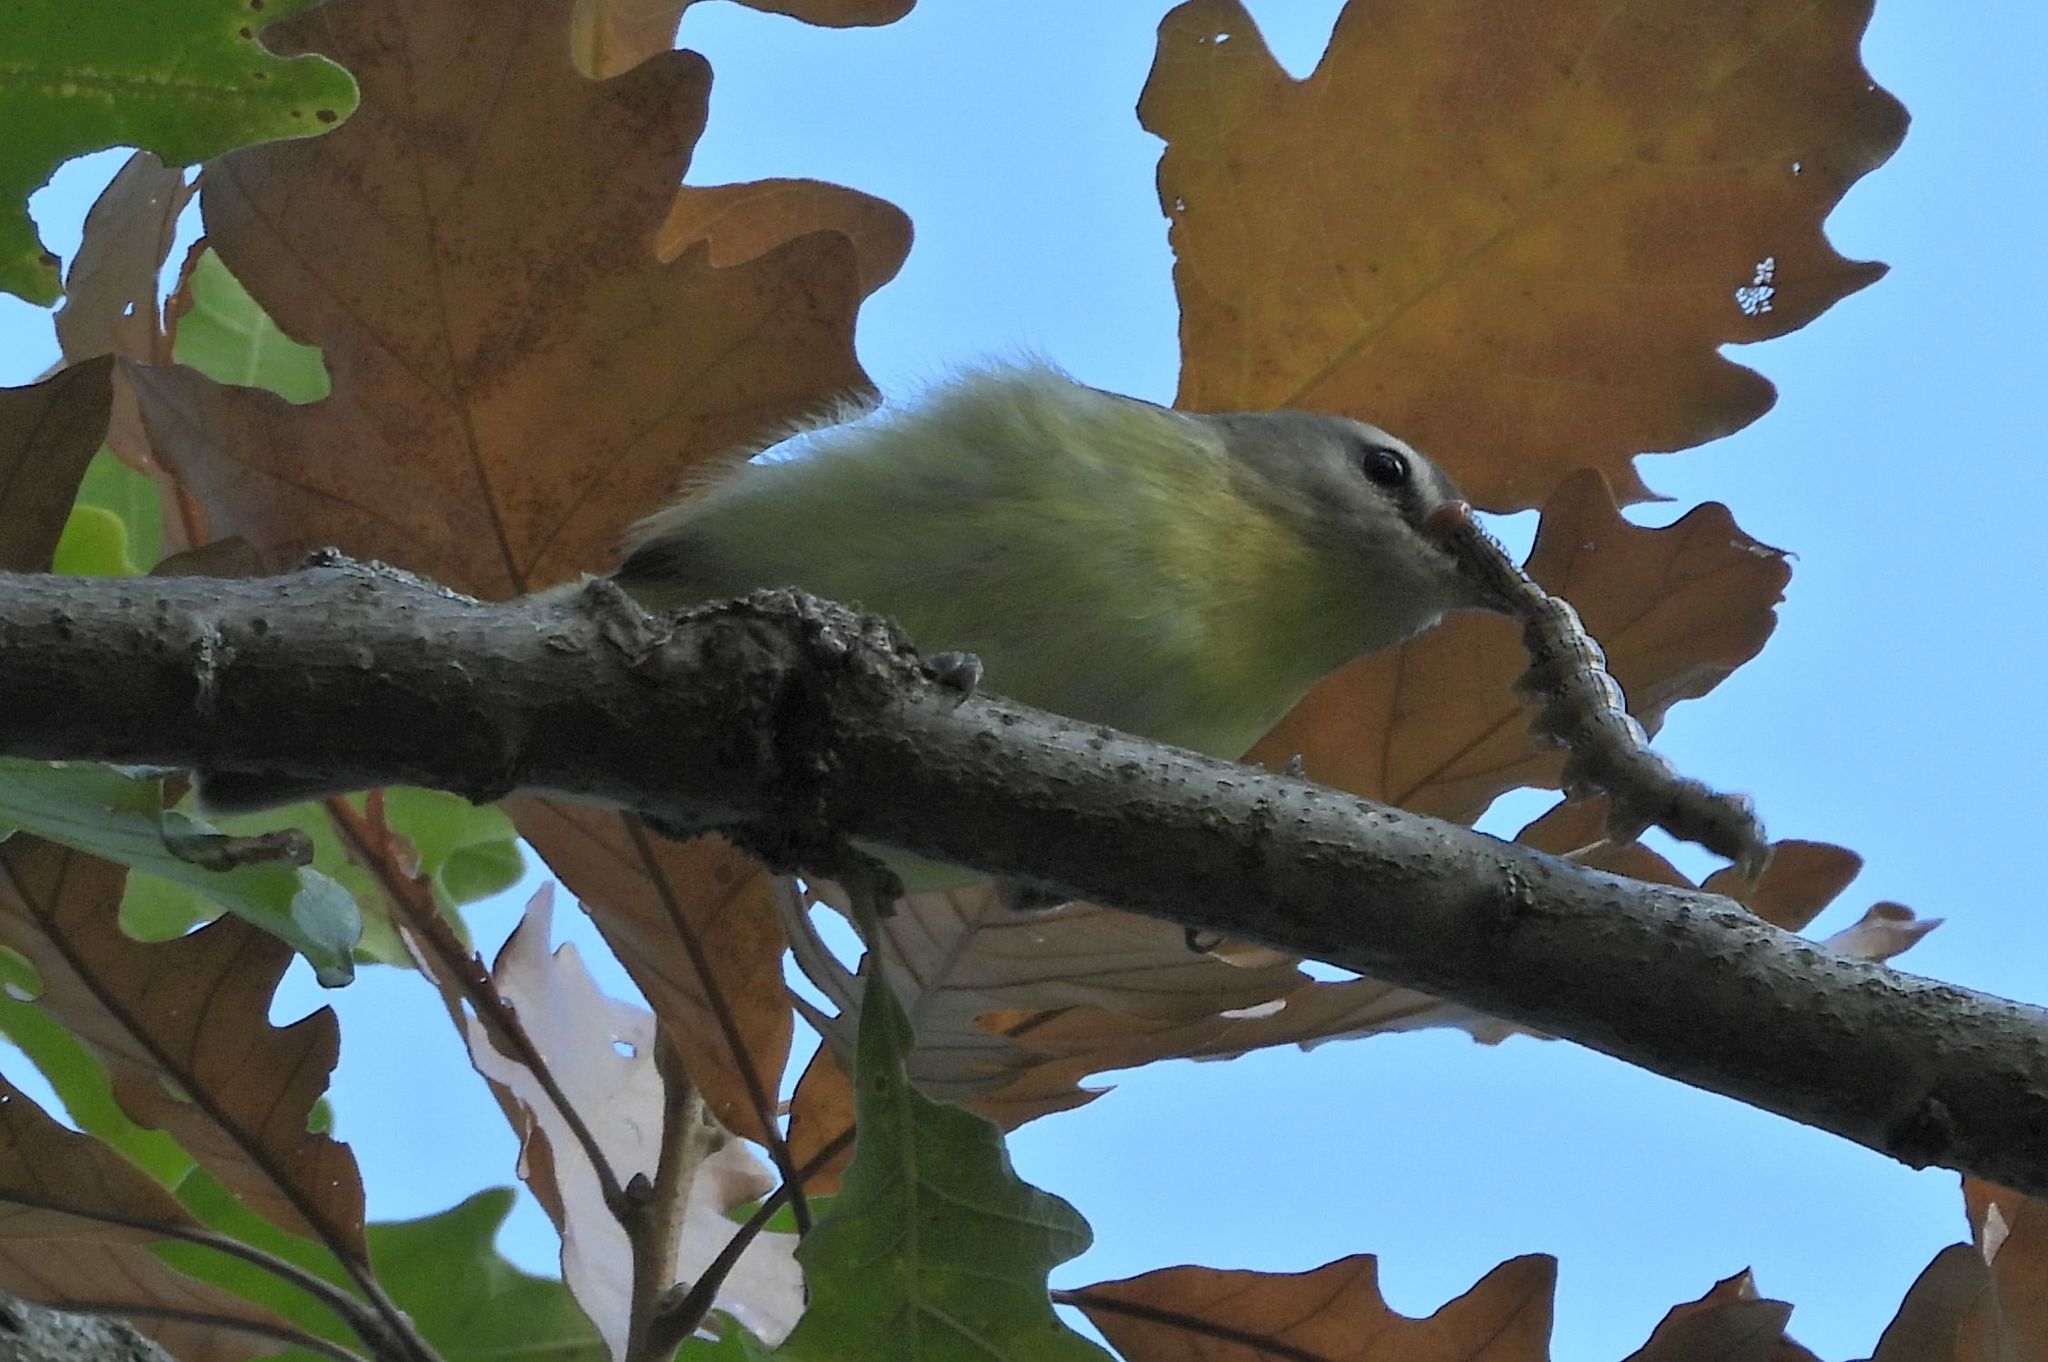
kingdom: Animalia
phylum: Chordata
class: Aves
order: Passeriformes
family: Vireonidae
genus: Vireo
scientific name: Vireo philadelphicus
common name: Philadelphia vireo
